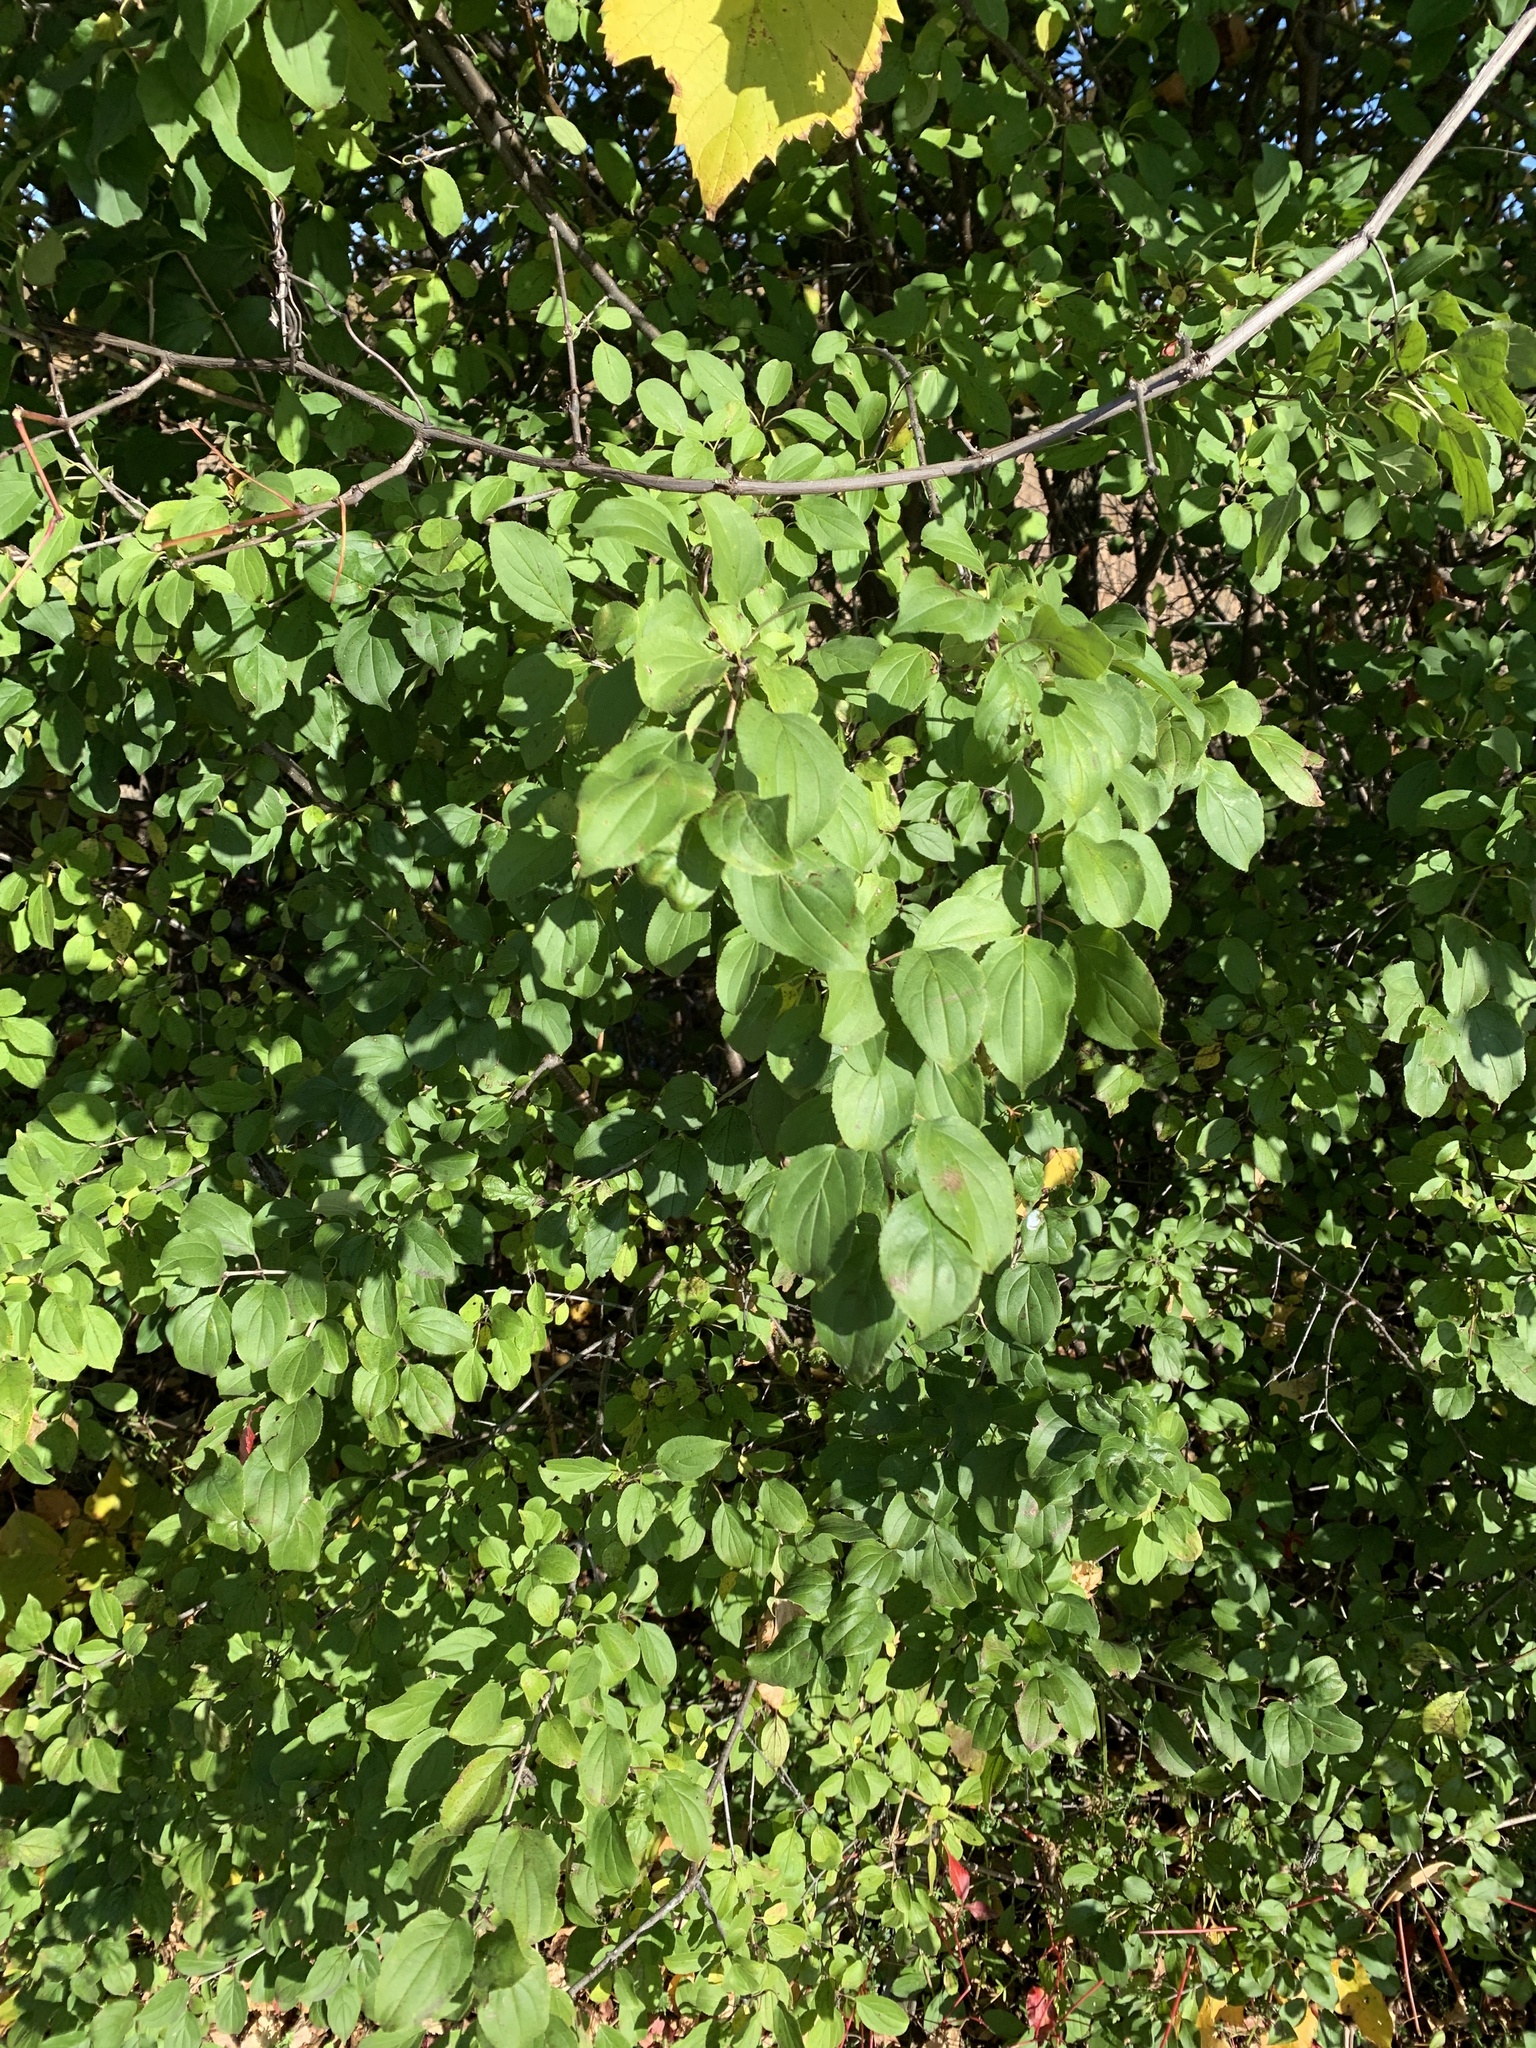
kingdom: Plantae
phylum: Tracheophyta
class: Magnoliopsida
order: Rosales
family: Rhamnaceae
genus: Rhamnus
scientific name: Rhamnus cathartica
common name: Common buckthorn
